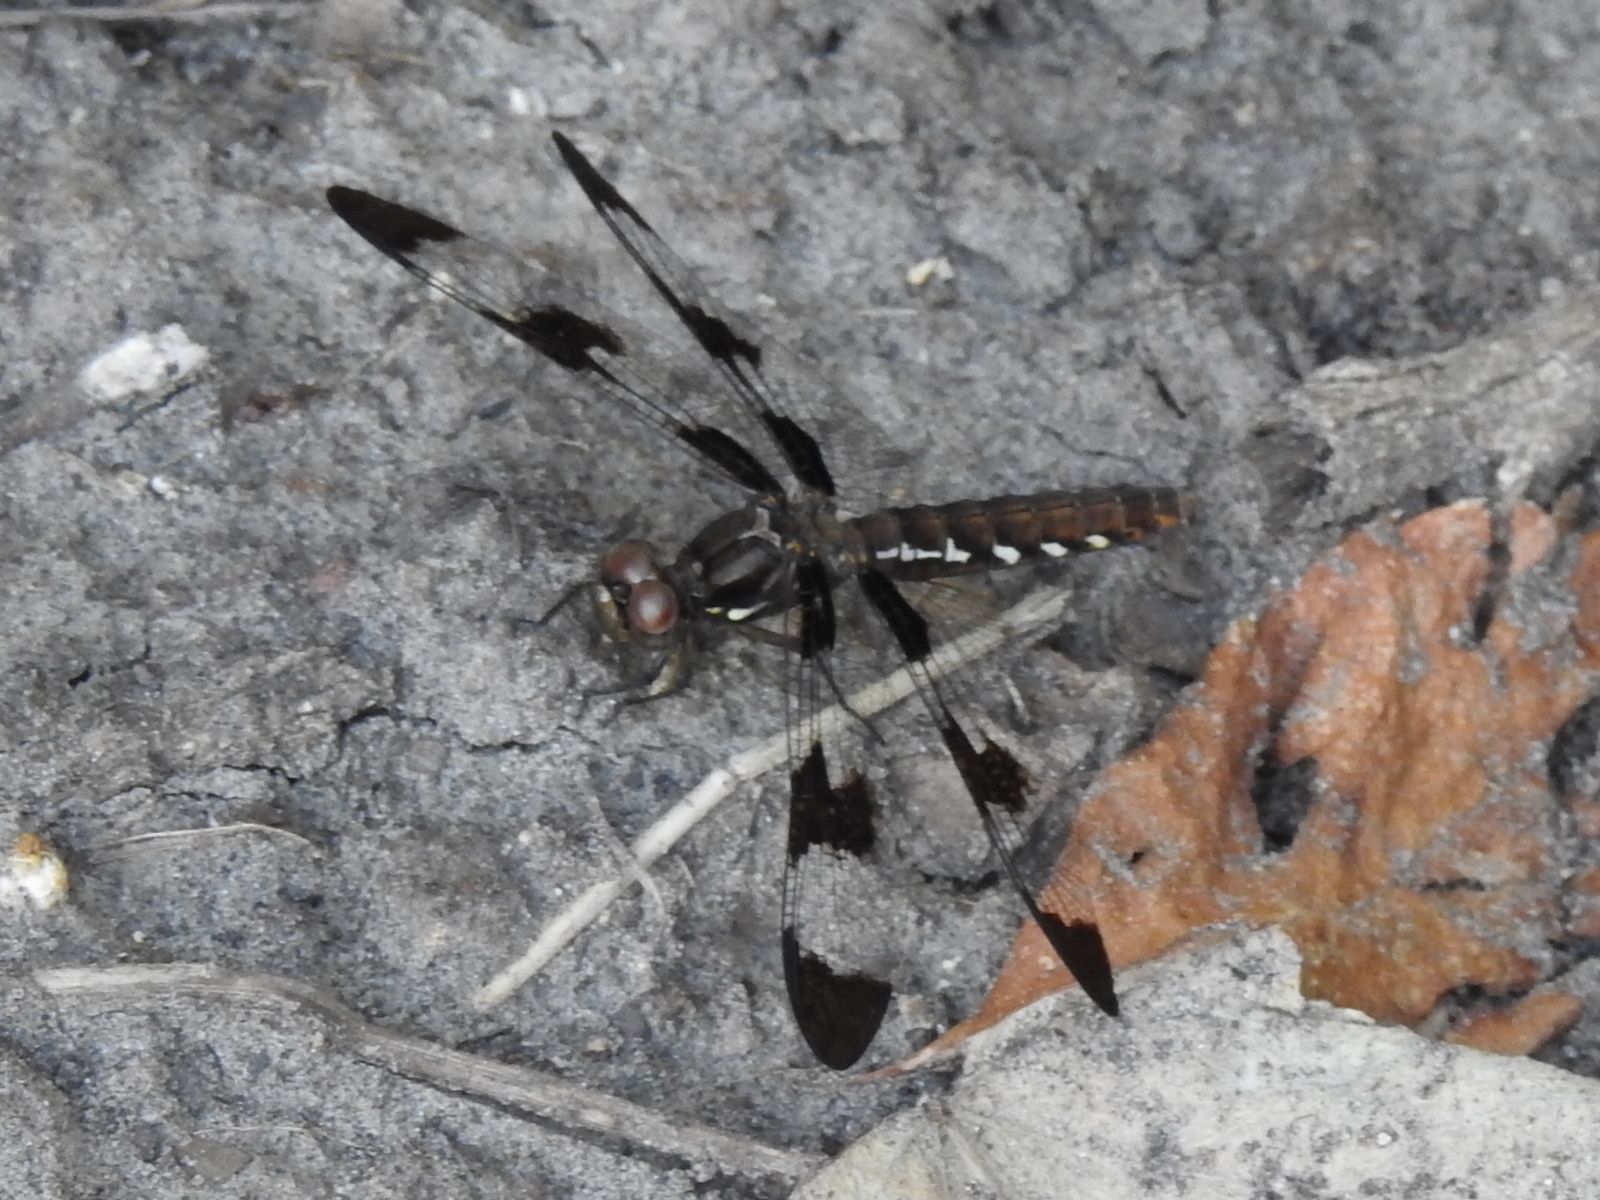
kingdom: Animalia
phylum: Arthropoda
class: Insecta
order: Odonata
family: Libellulidae
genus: Plathemis
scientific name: Plathemis lydia
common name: Common whitetail
